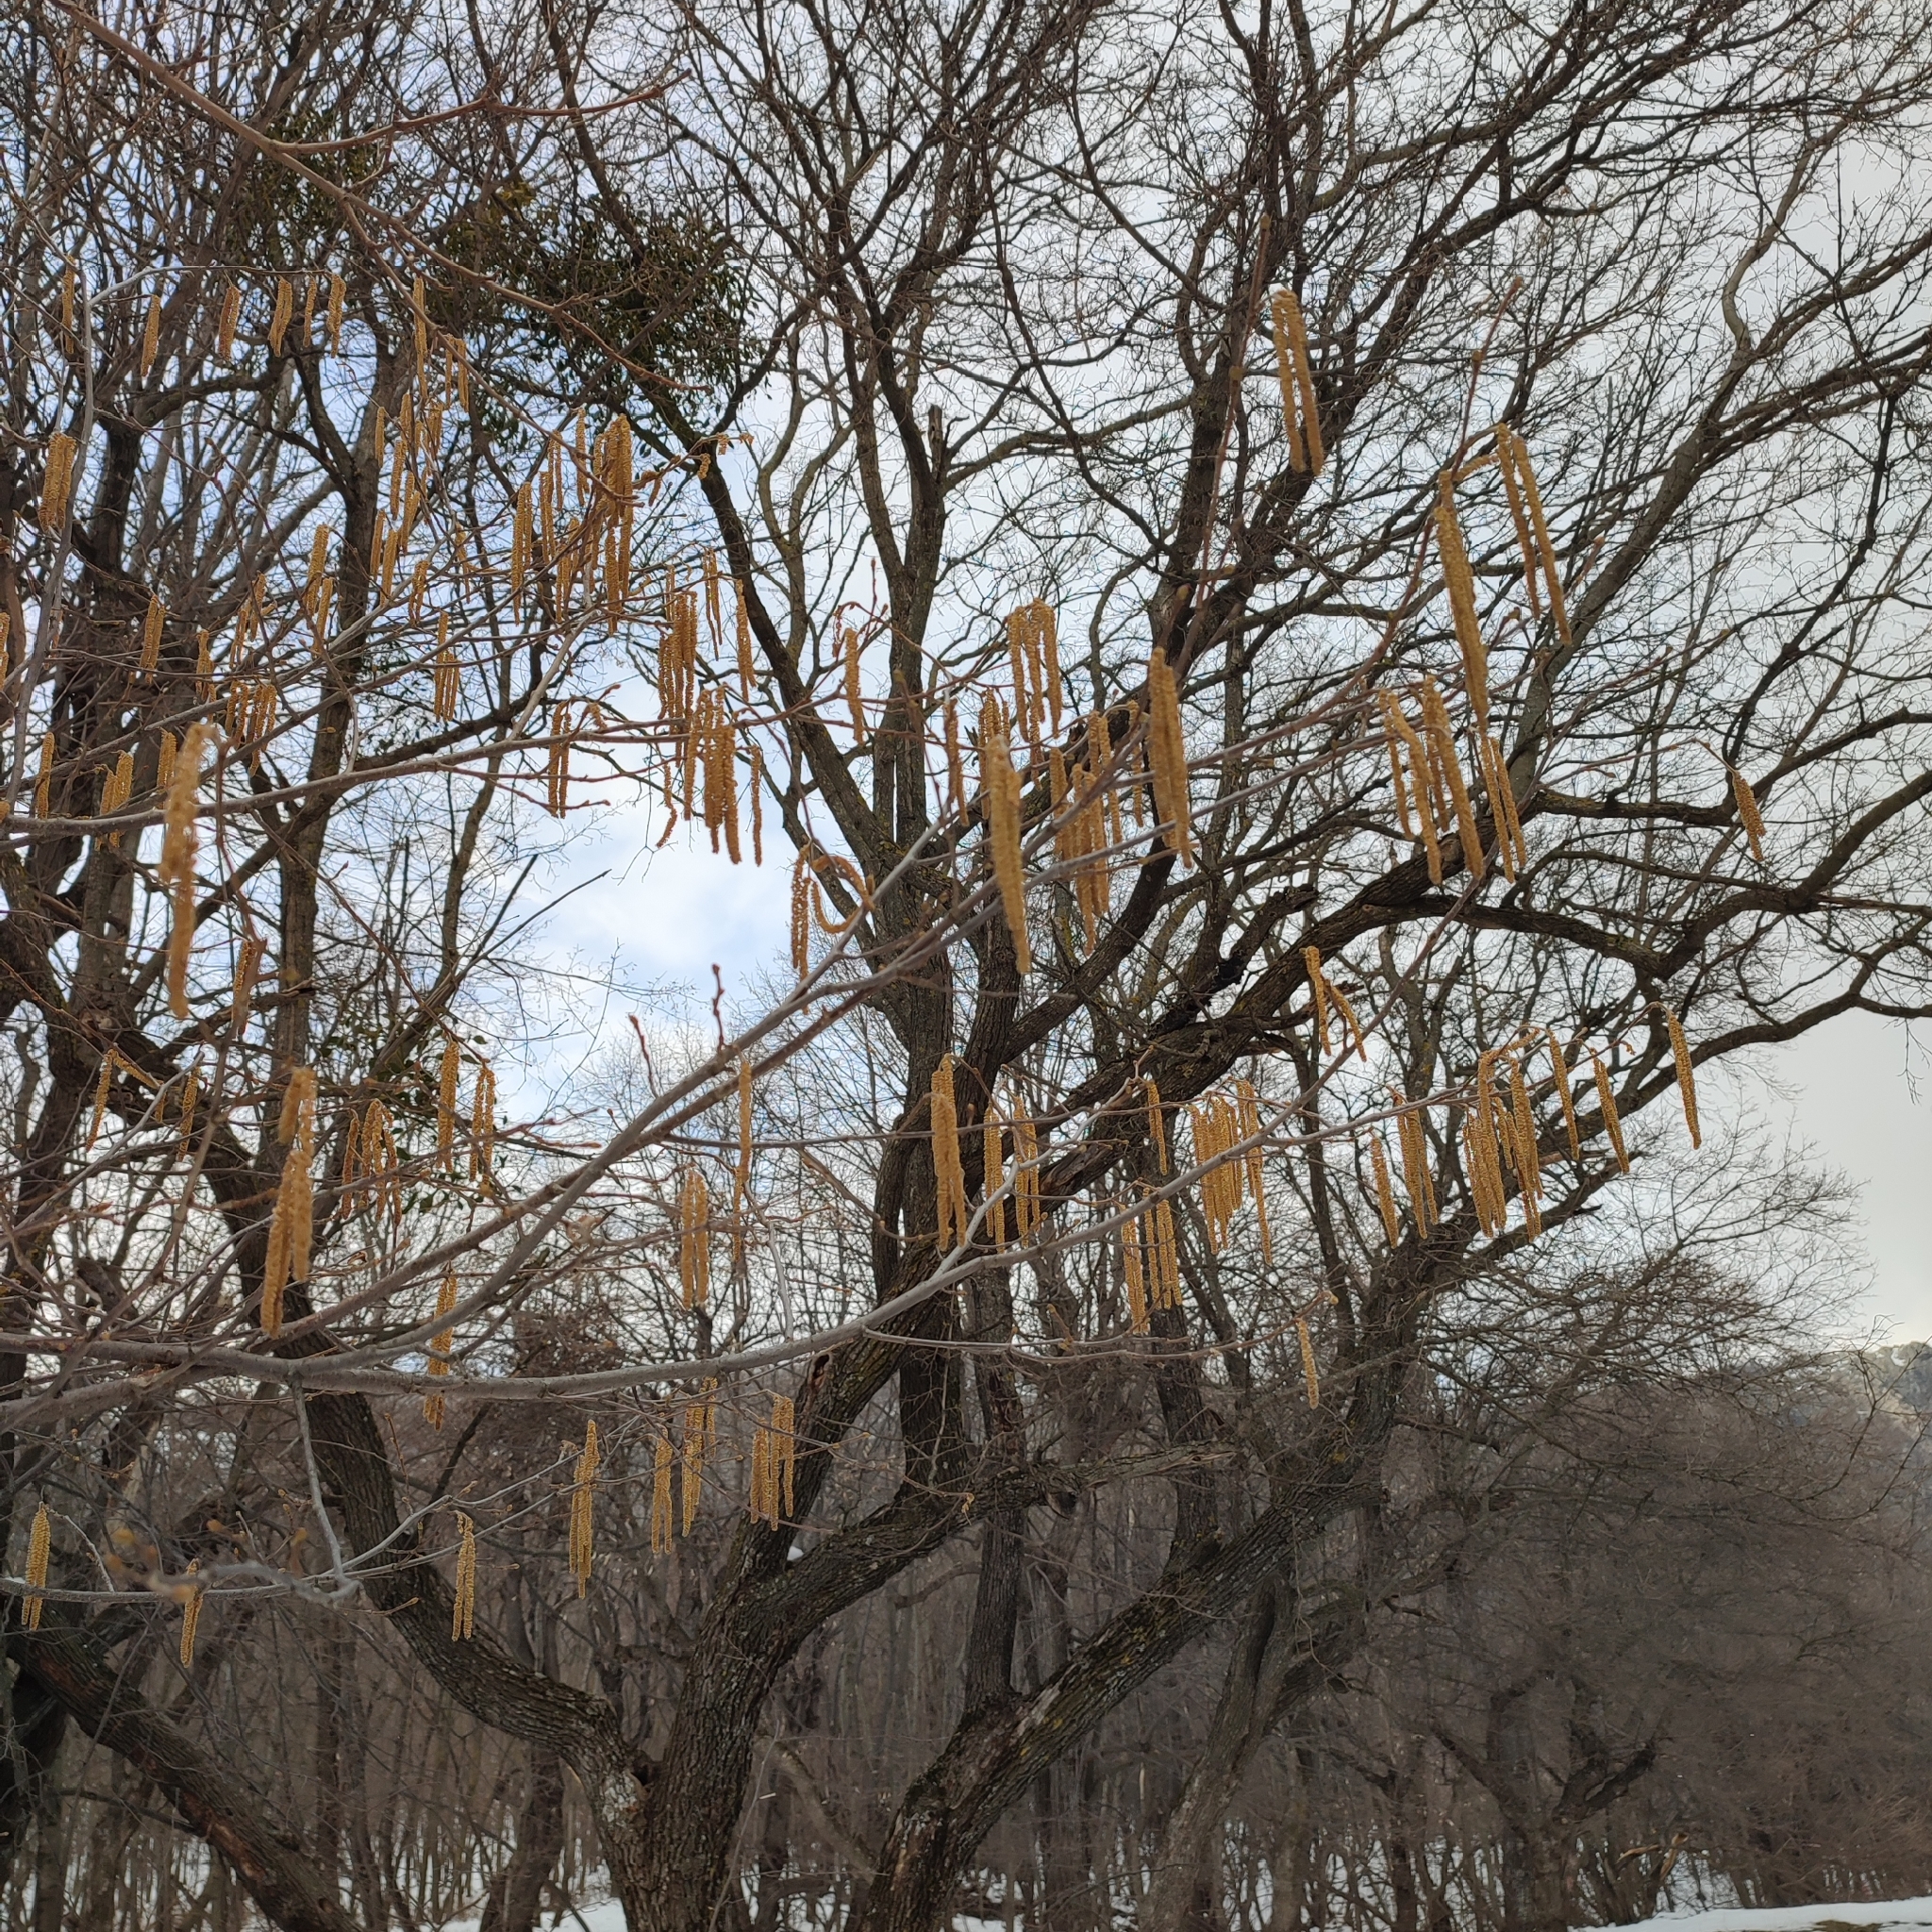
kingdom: Plantae
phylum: Tracheophyta
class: Magnoliopsida
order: Fagales
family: Betulaceae
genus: Corylus
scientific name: Corylus avellana
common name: European hazel
